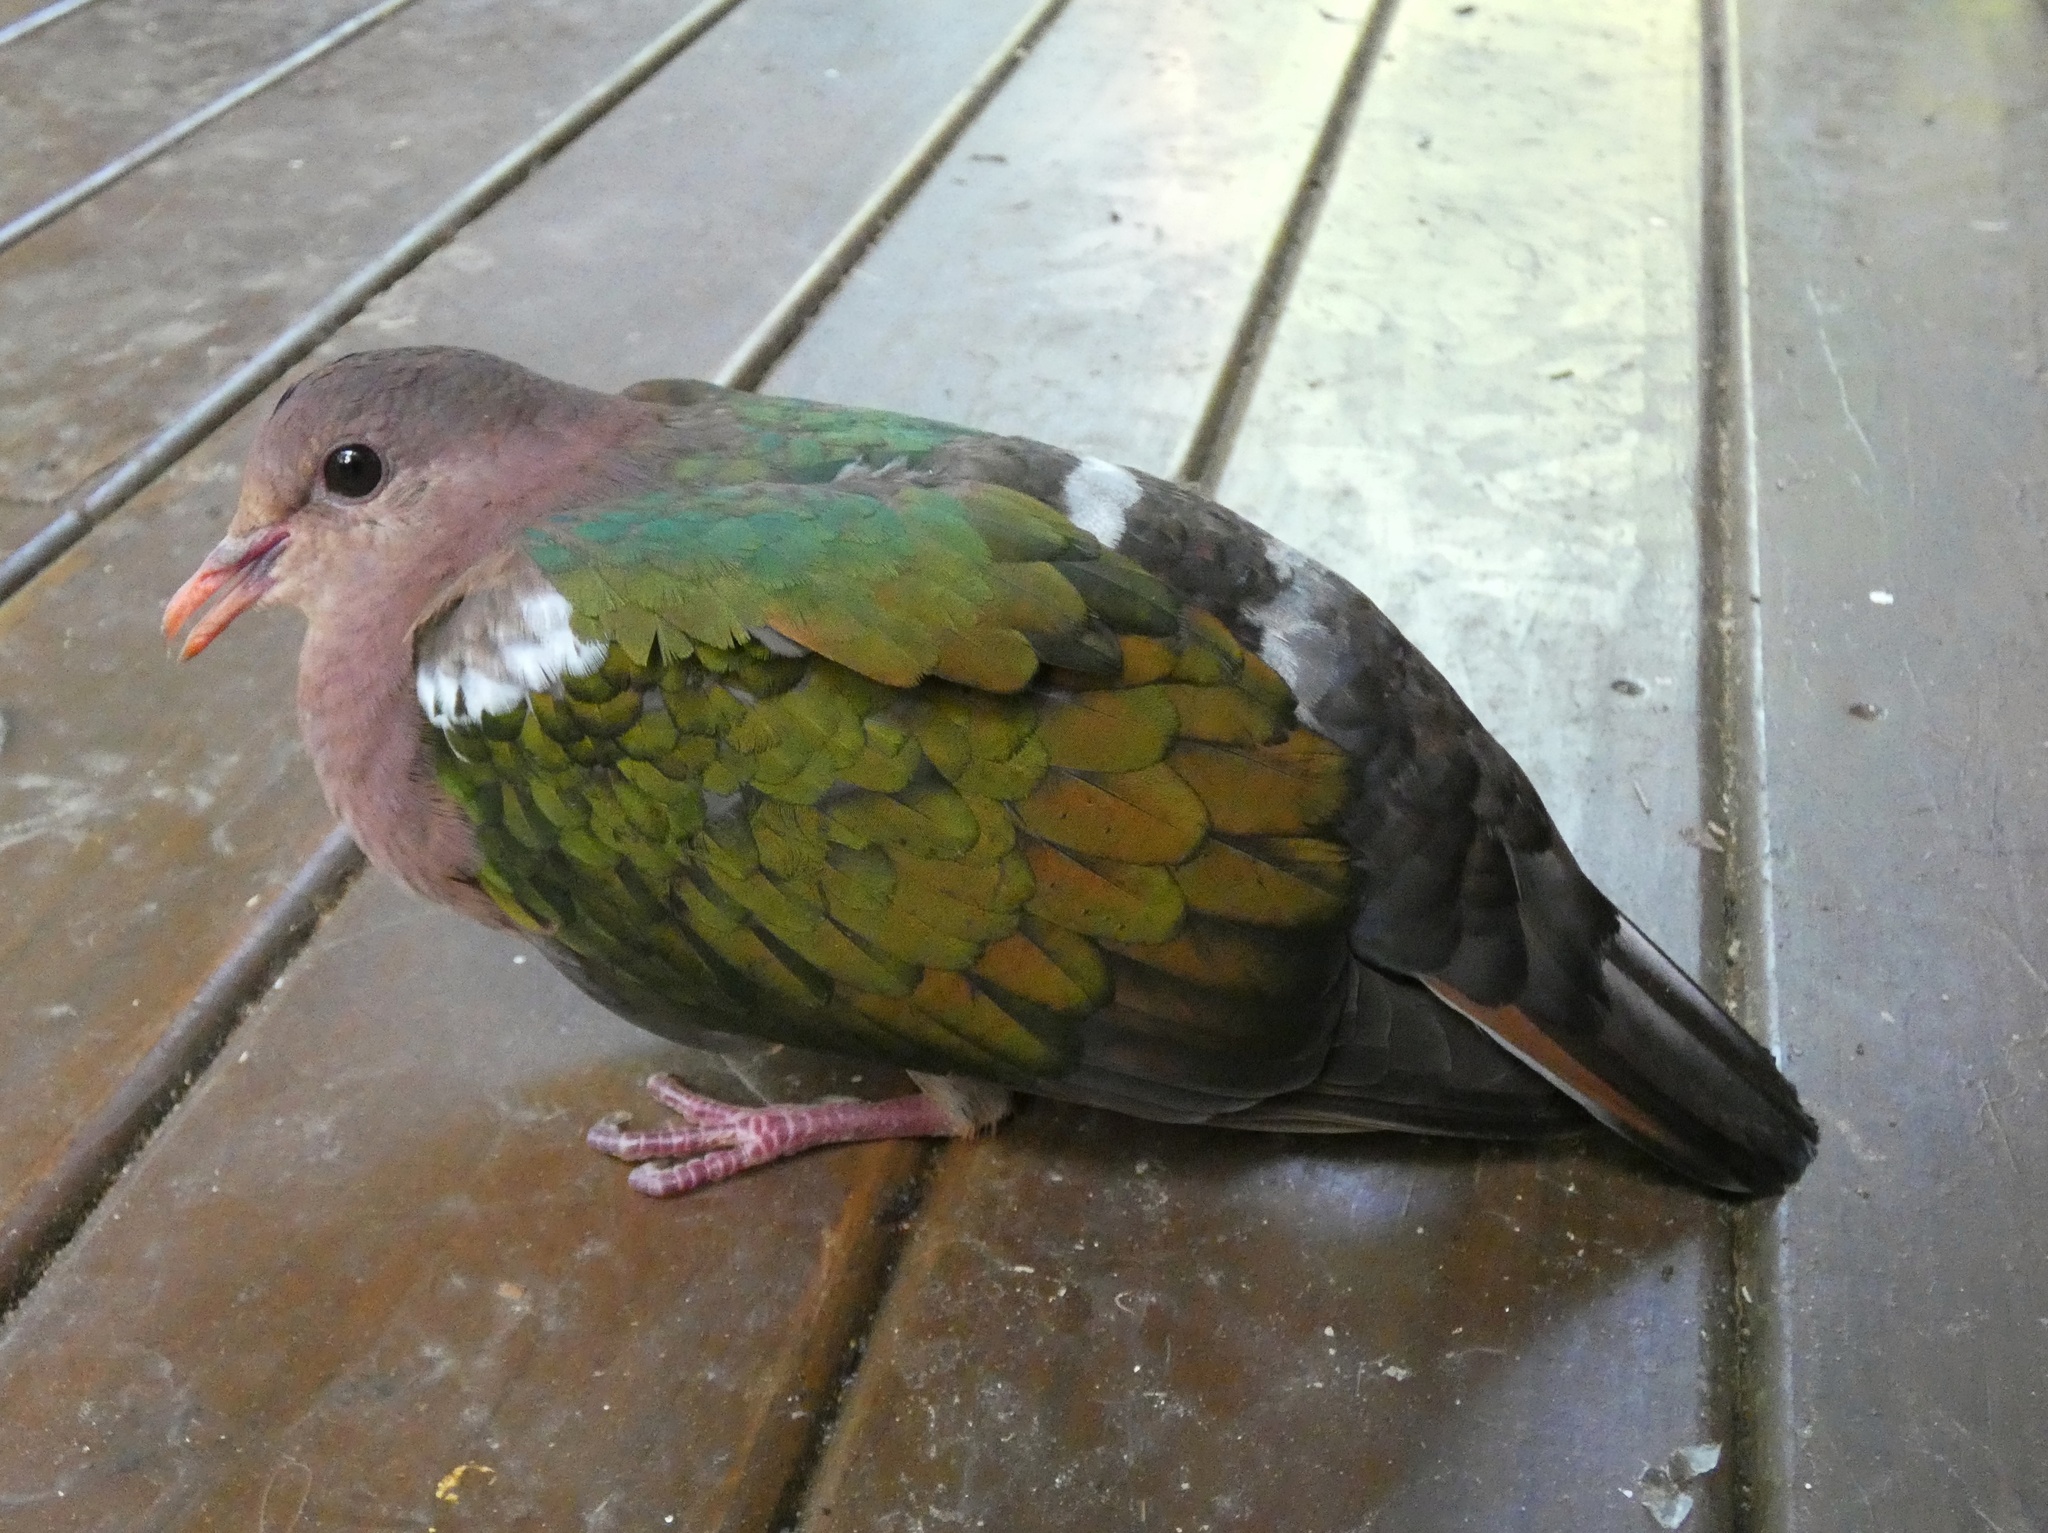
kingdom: Animalia
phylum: Chordata
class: Aves
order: Columbiformes
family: Columbidae
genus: Chalcophaps
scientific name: Chalcophaps longirostris
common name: Pacific emerald dove
